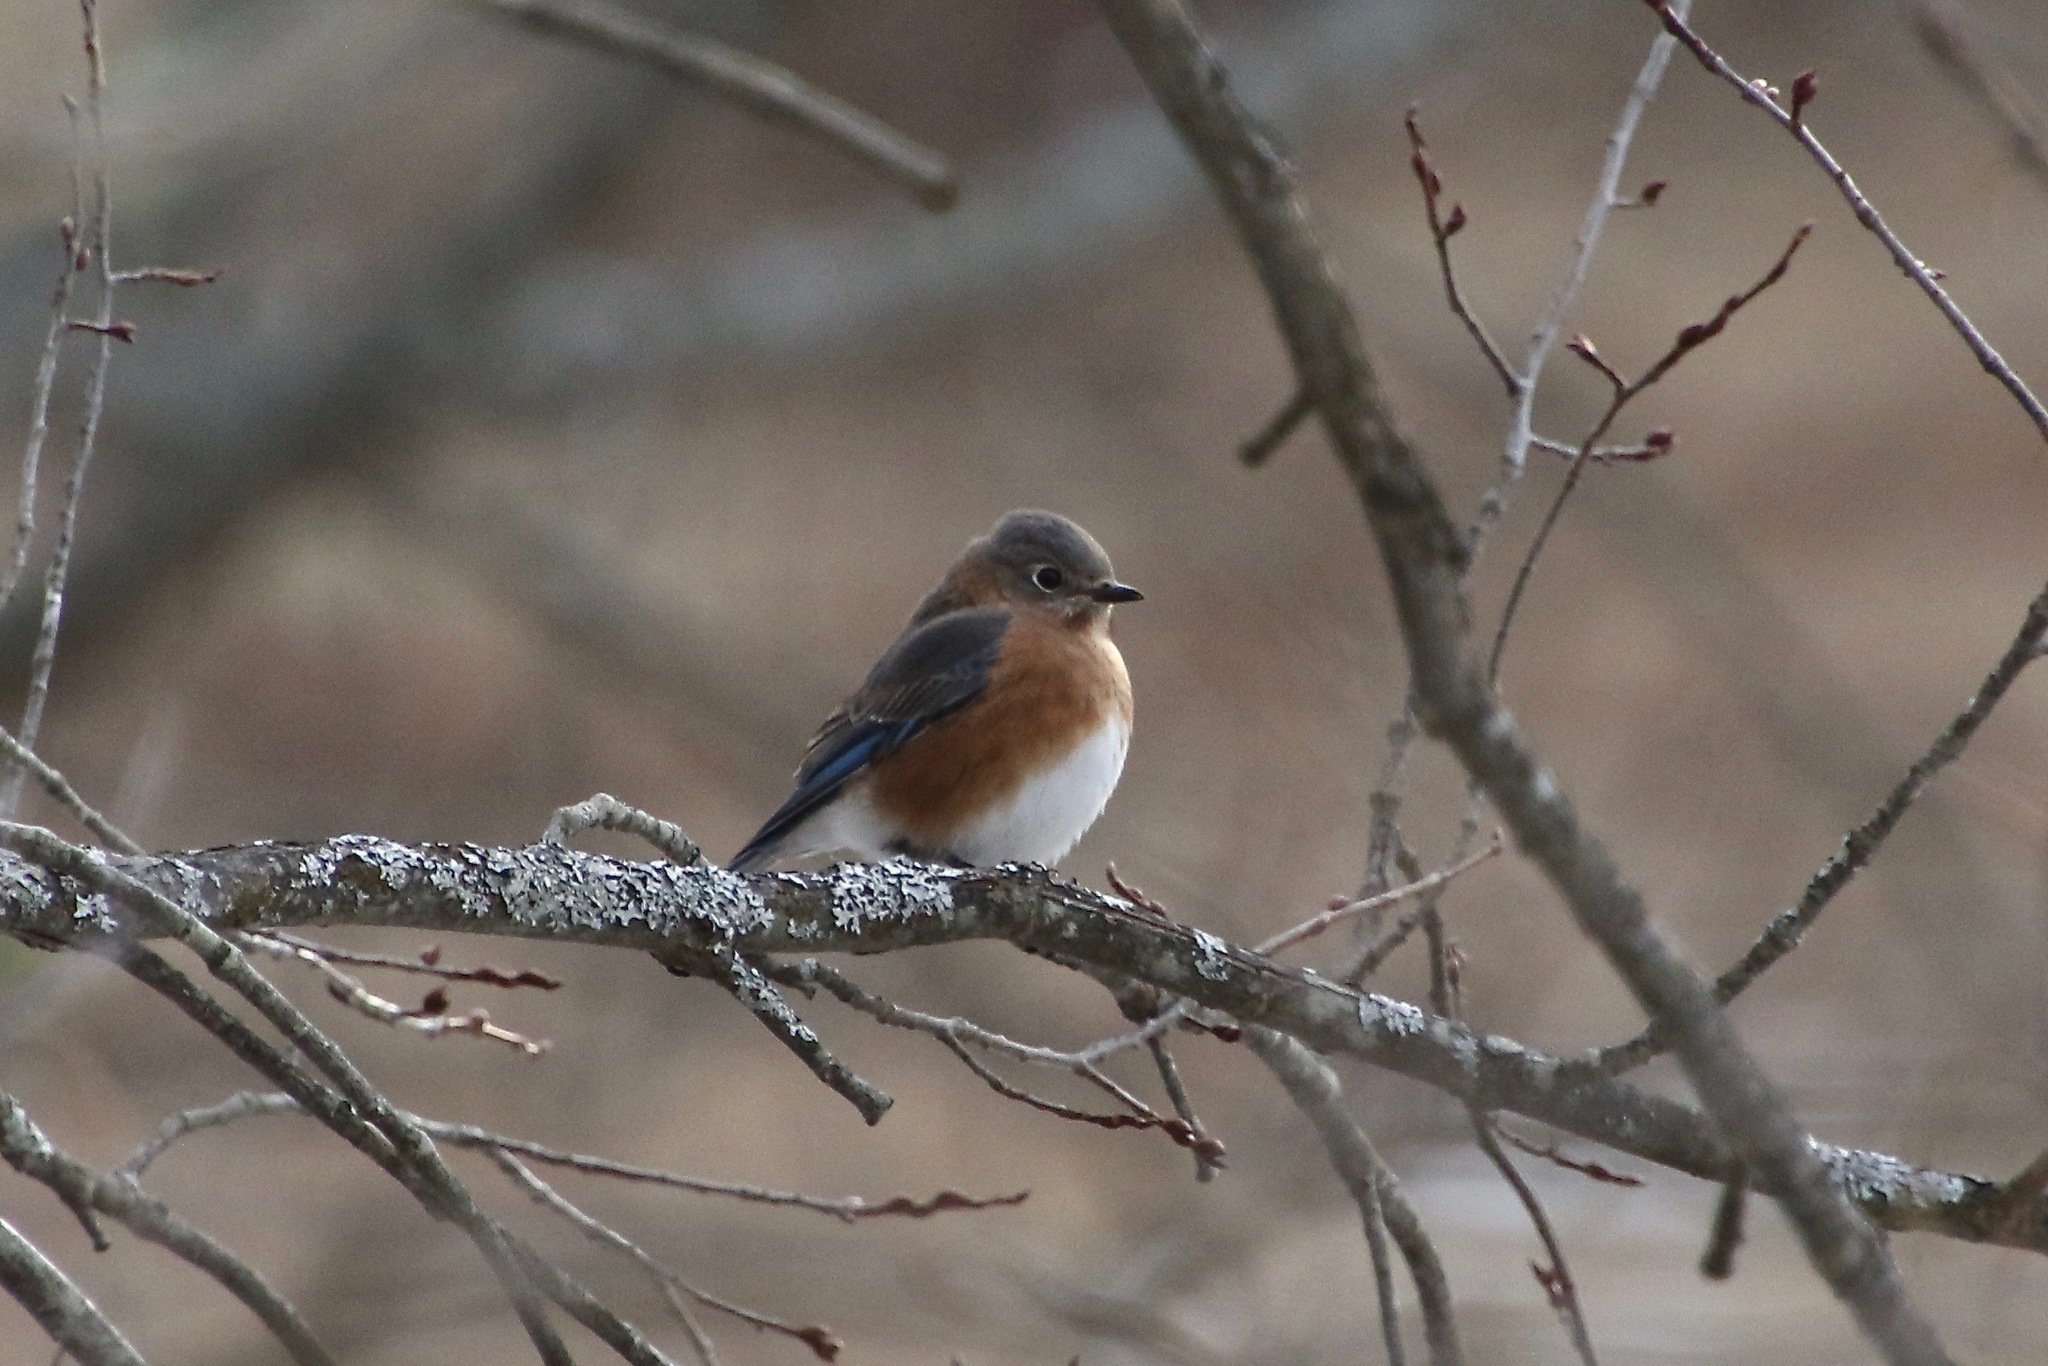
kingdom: Animalia
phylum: Chordata
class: Aves
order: Passeriformes
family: Turdidae
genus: Sialia
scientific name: Sialia sialis
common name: Eastern bluebird
